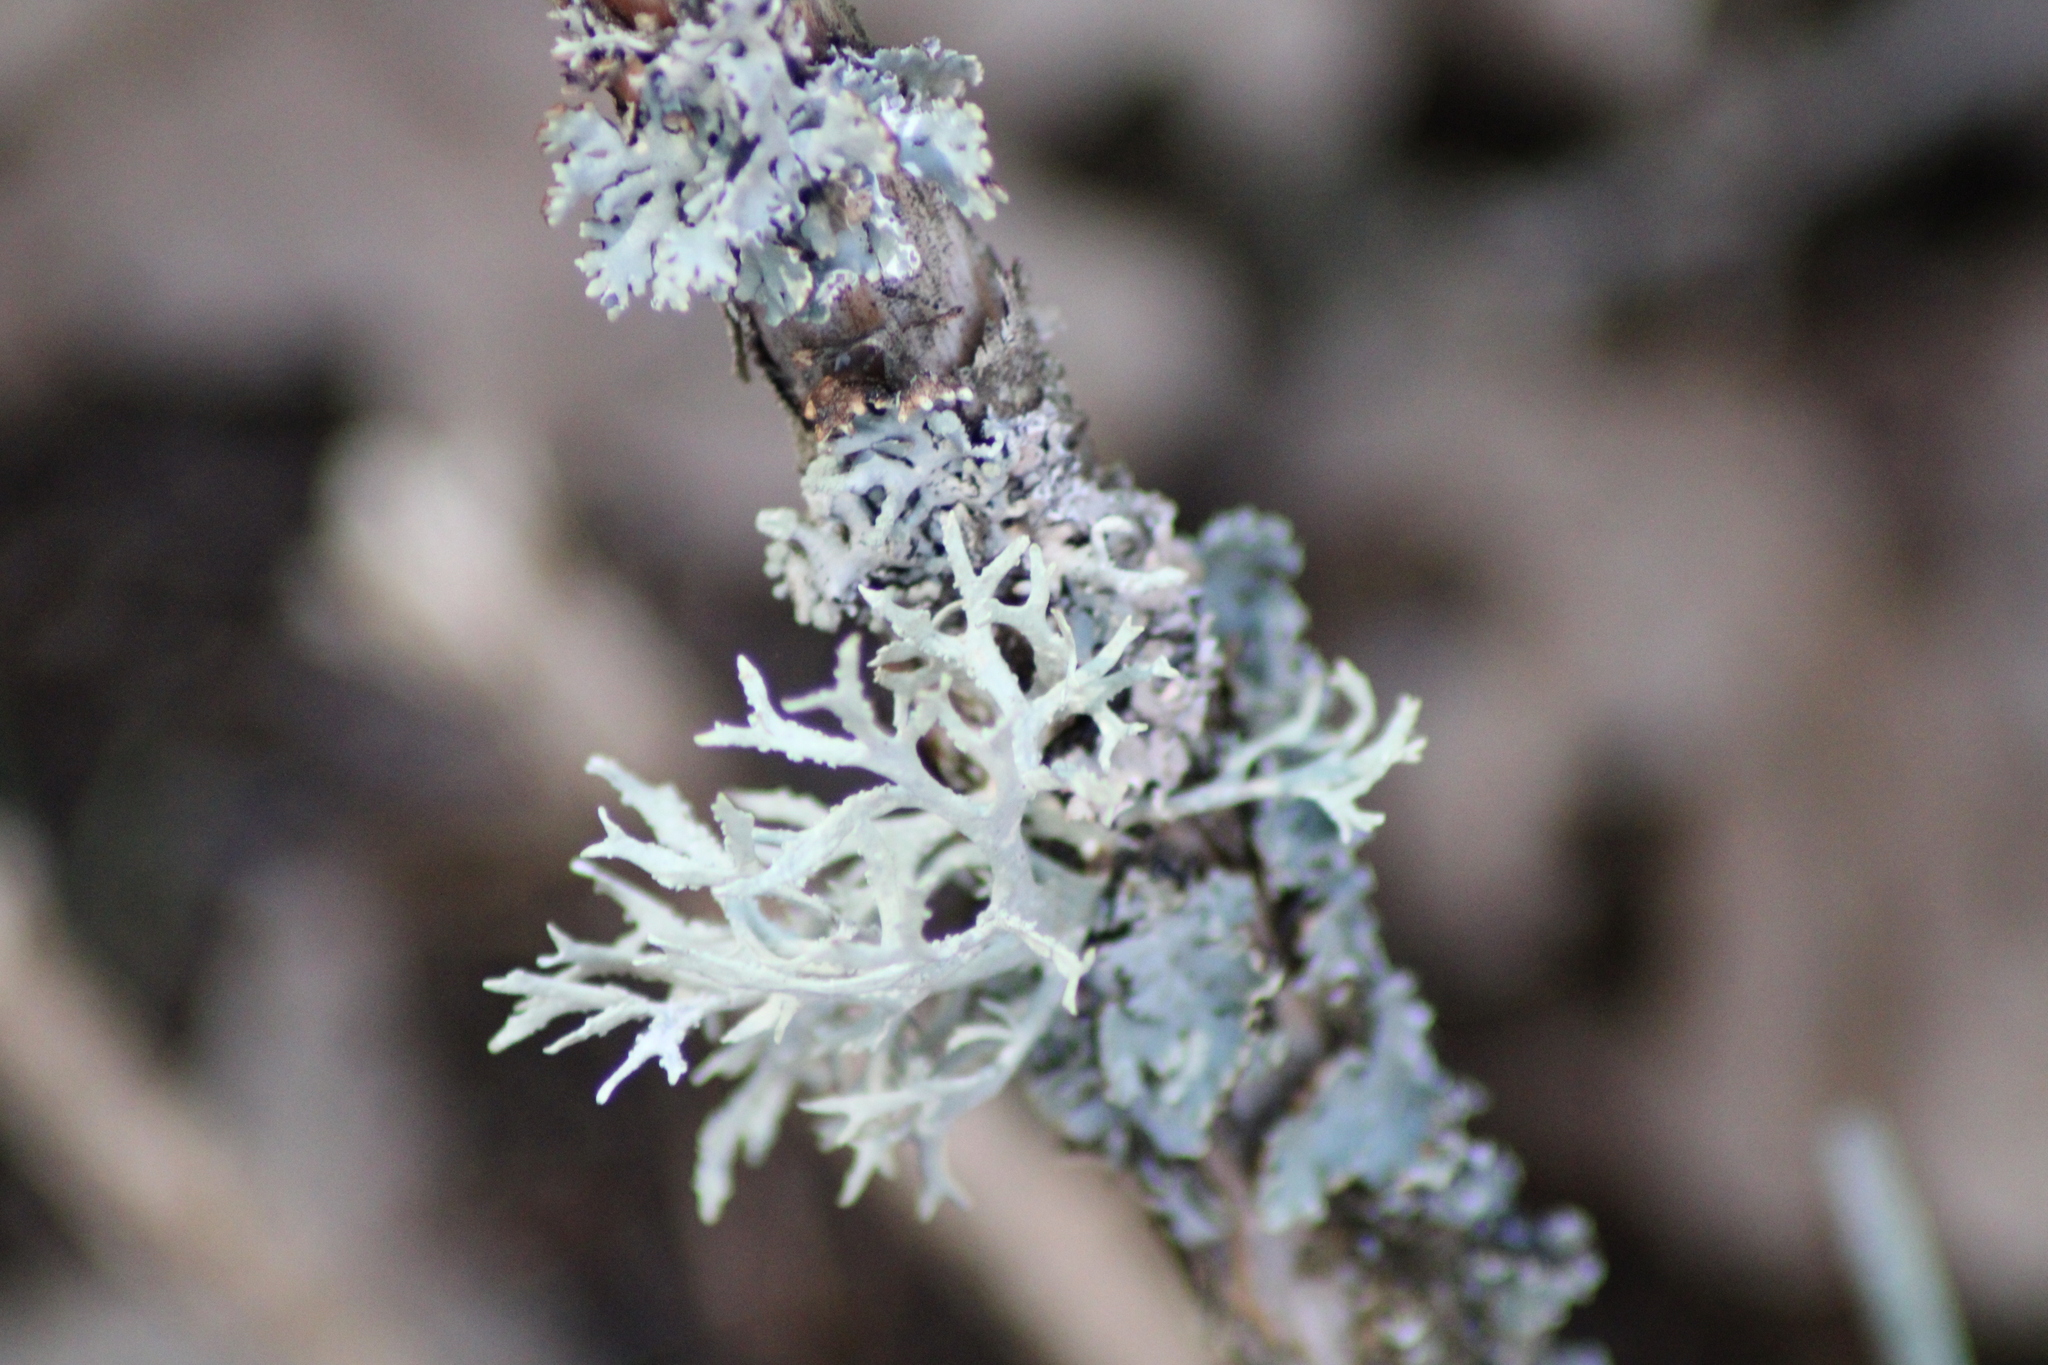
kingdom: Fungi
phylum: Ascomycota
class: Lecanoromycetes
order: Lecanorales
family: Parmeliaceae
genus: Evernia
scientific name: Evernia prunastri
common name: Oak moss
